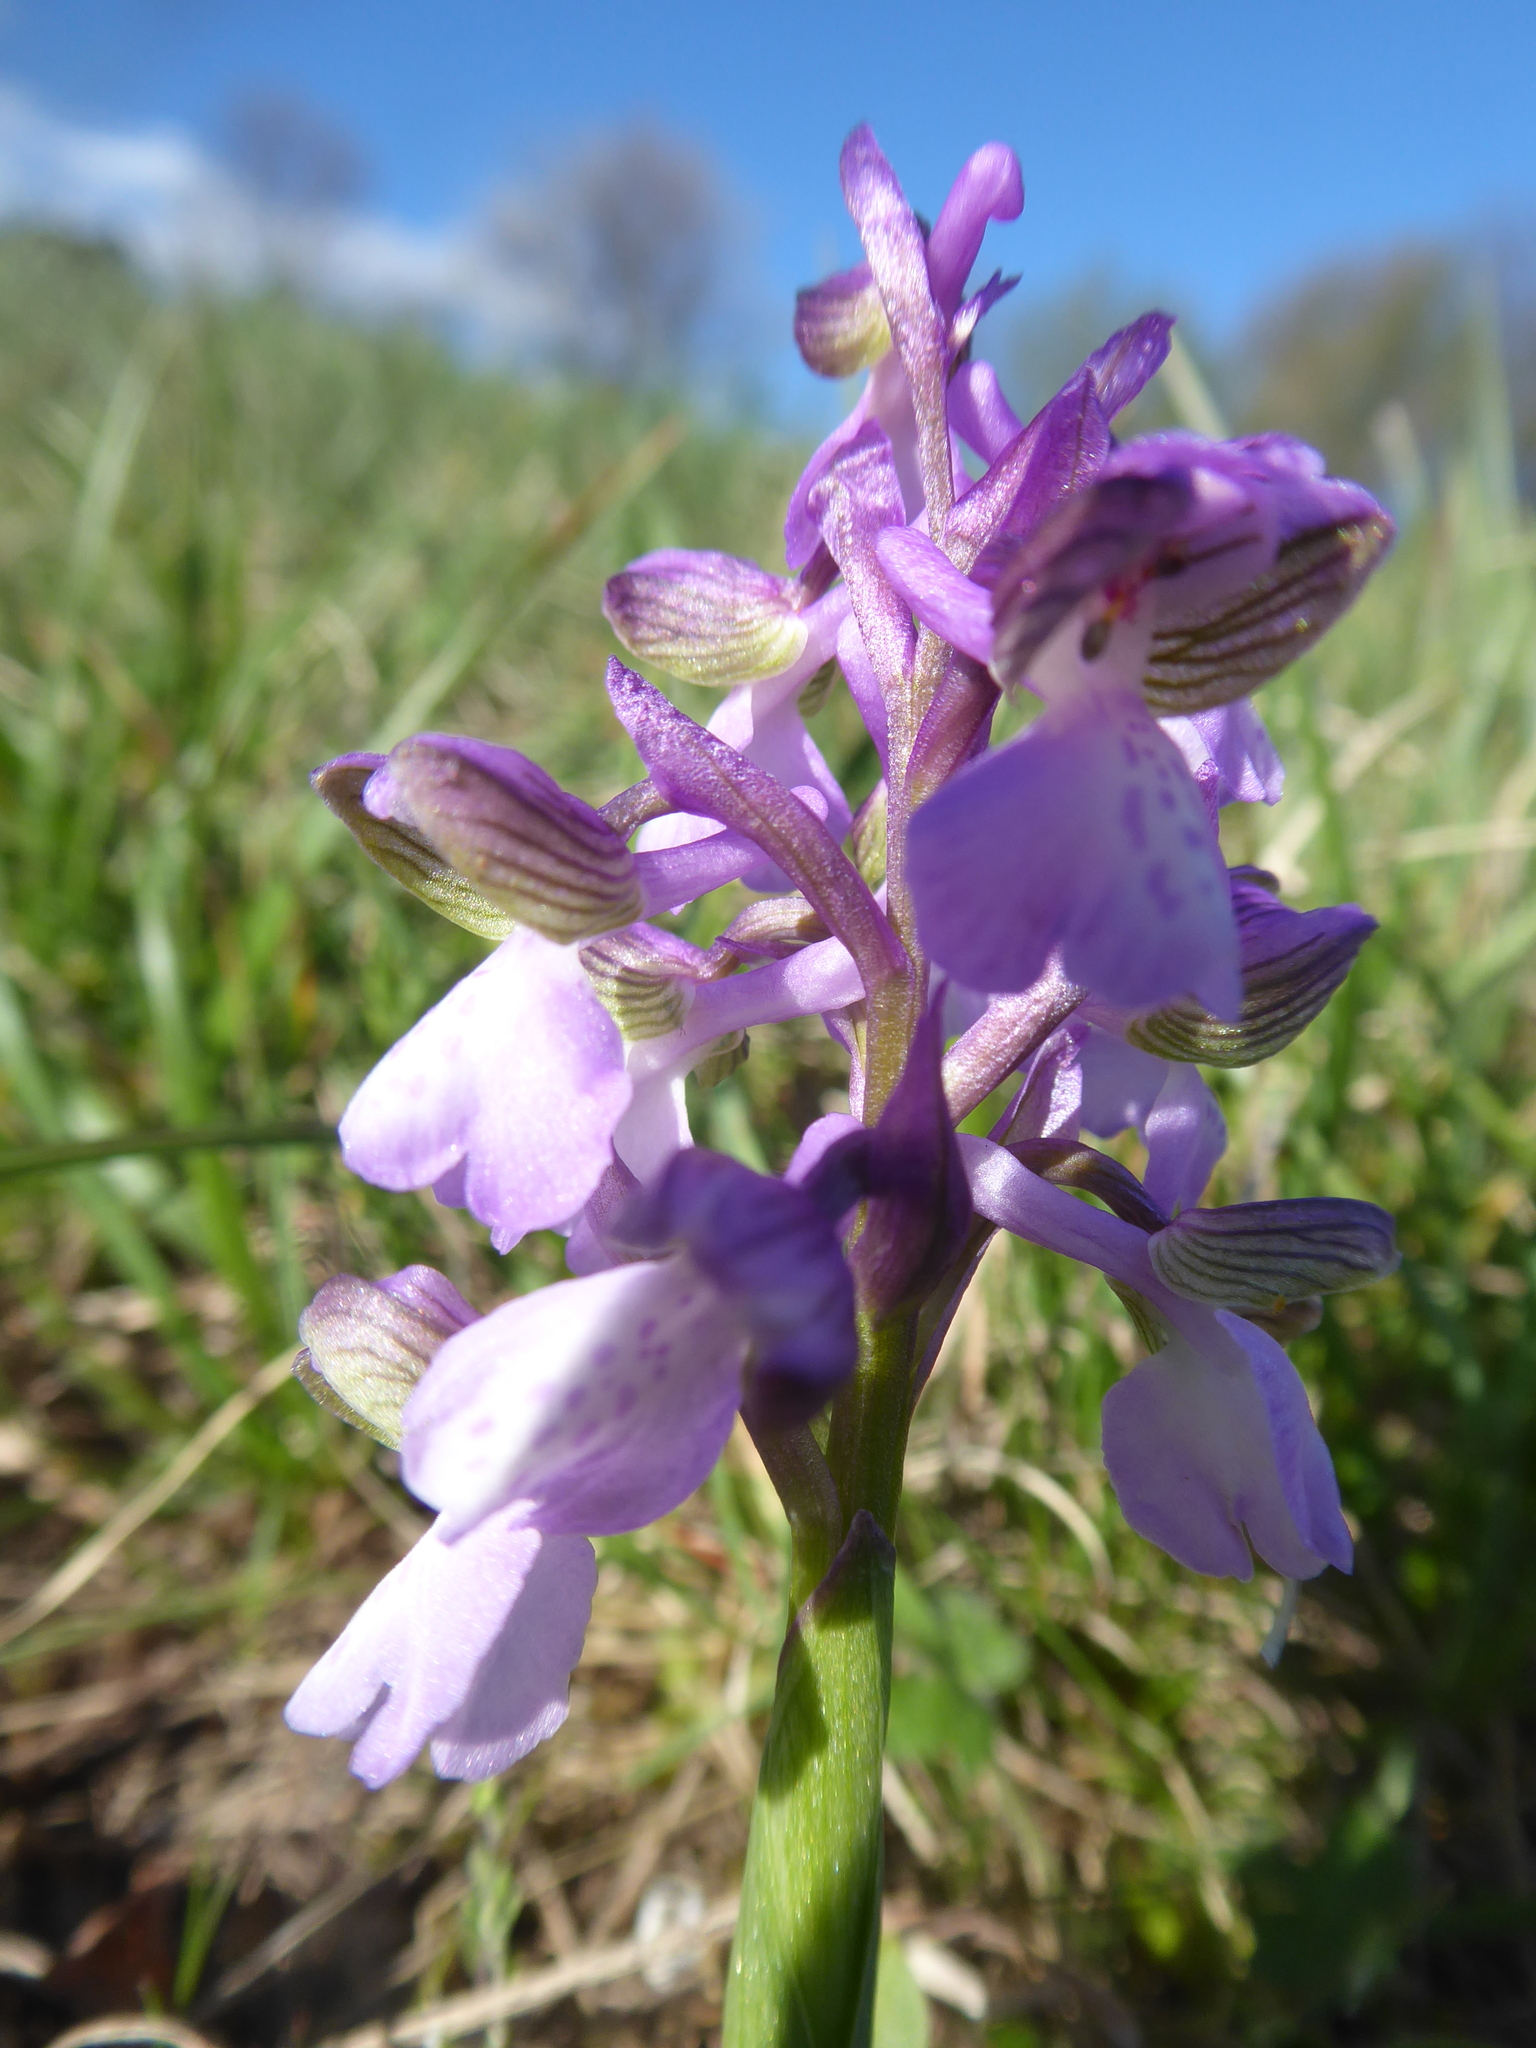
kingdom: Plantae
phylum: Tracheophyta
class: Liliopsida
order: Asparagales
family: Orchidaceae
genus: Anacamptis
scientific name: Anacamptis morio
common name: Green-winged orchid
